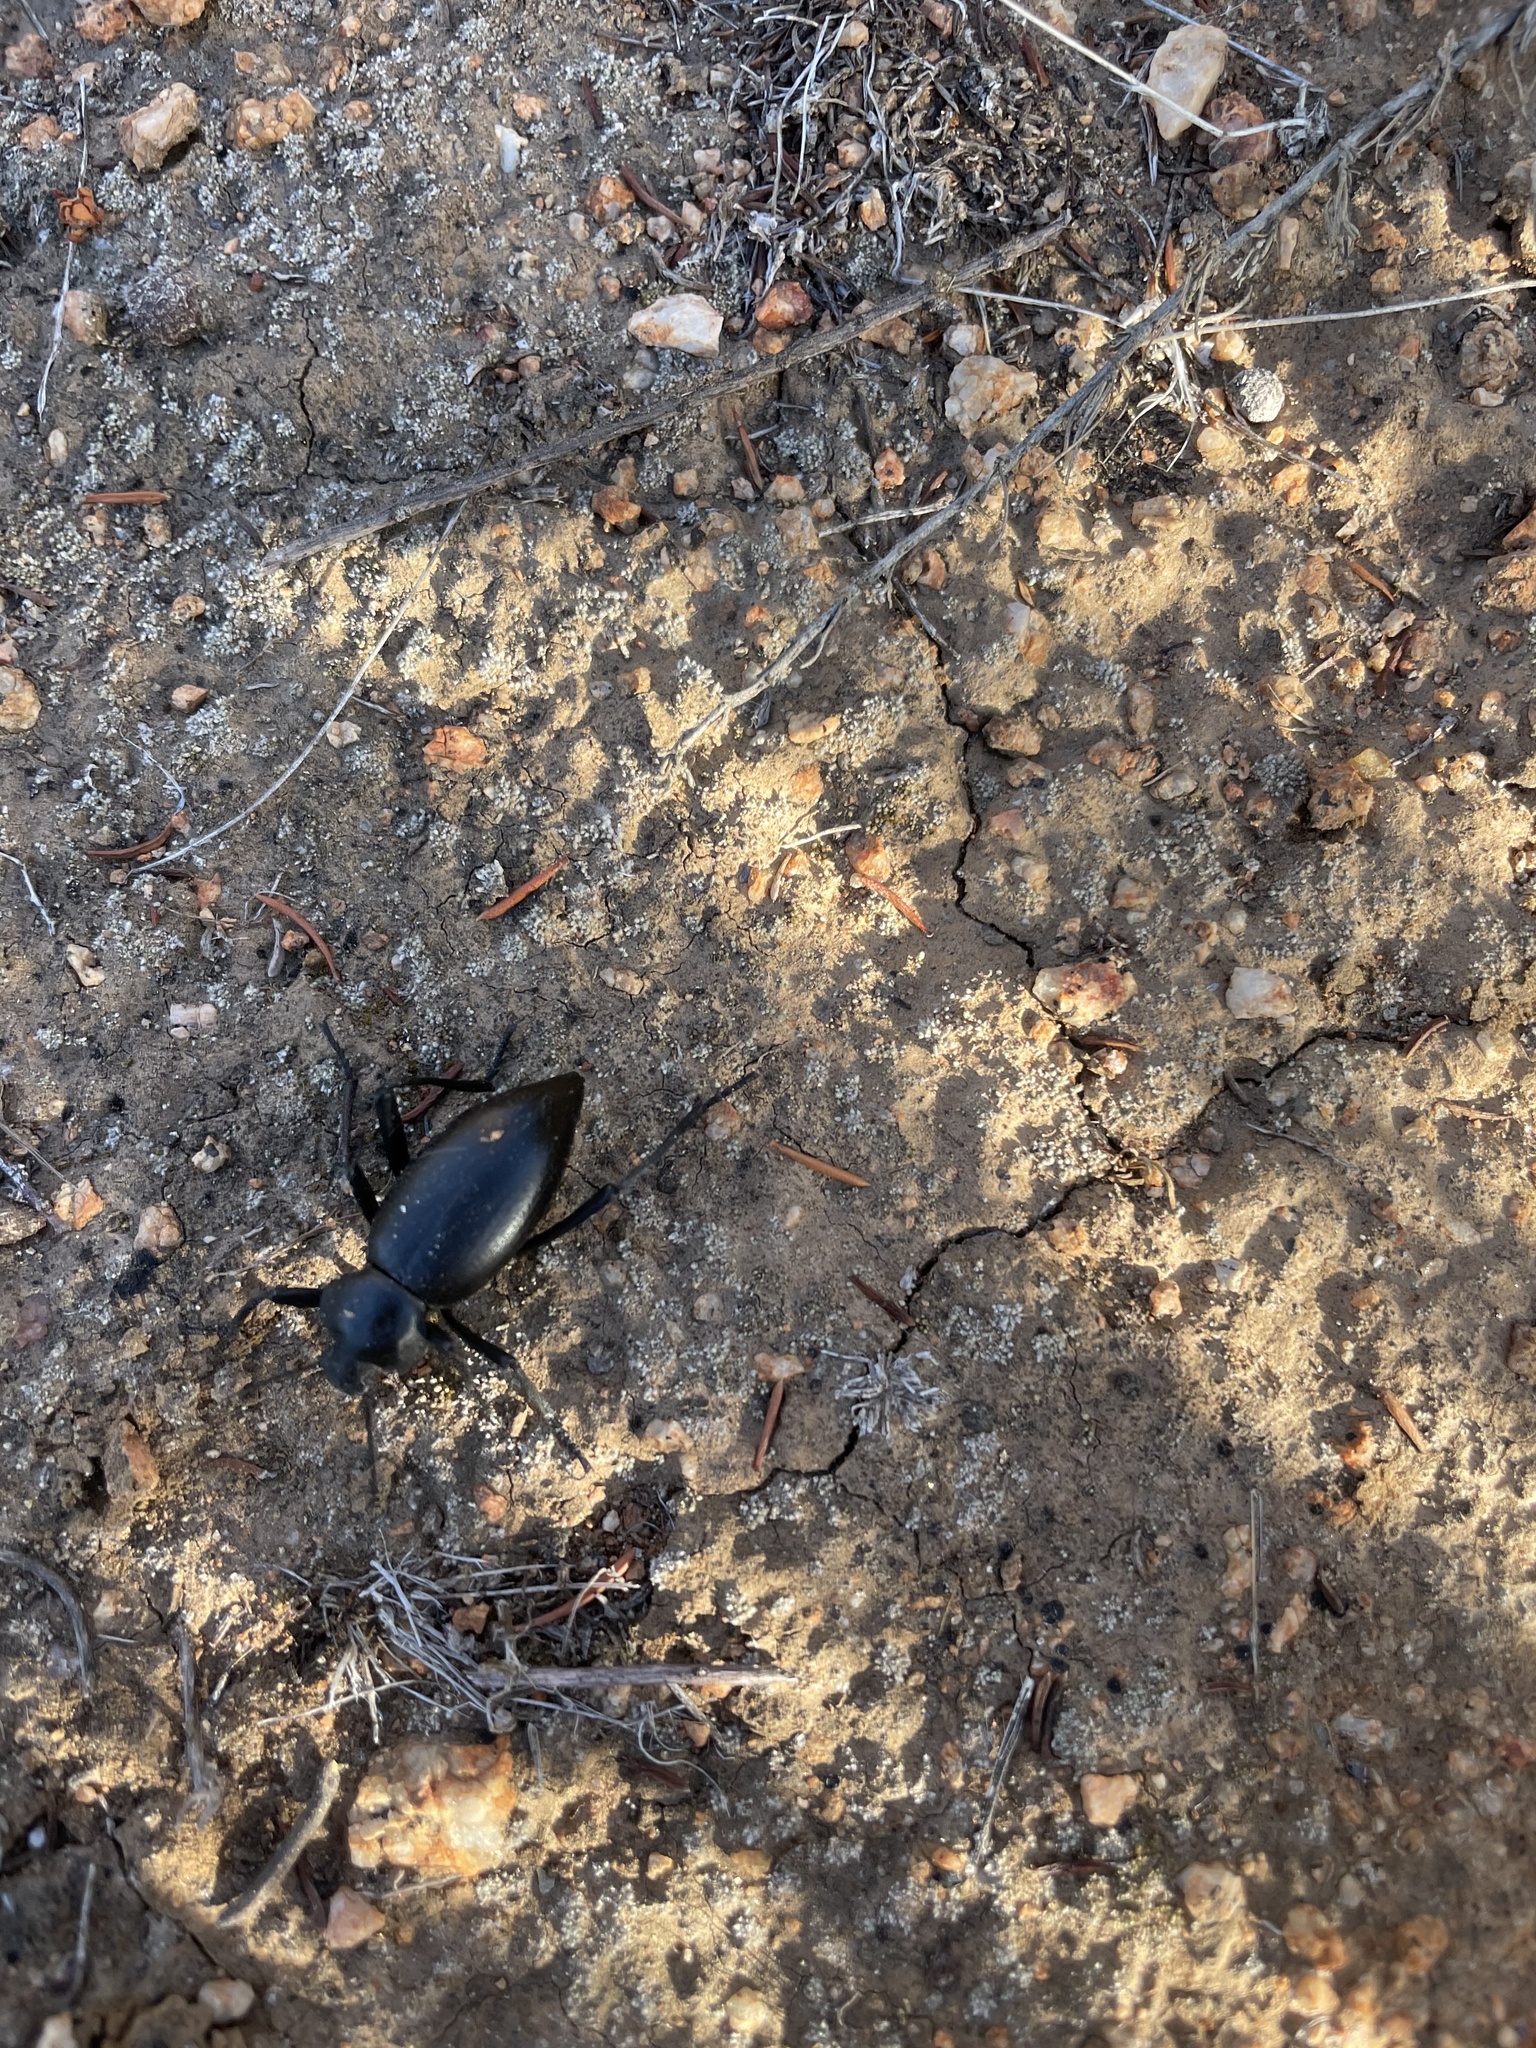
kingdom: Animalia
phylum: Arthropoda
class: Insecta
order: Coleoptera
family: Tenebrionidae
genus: Eleodes
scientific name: Eleodes acuticauda
